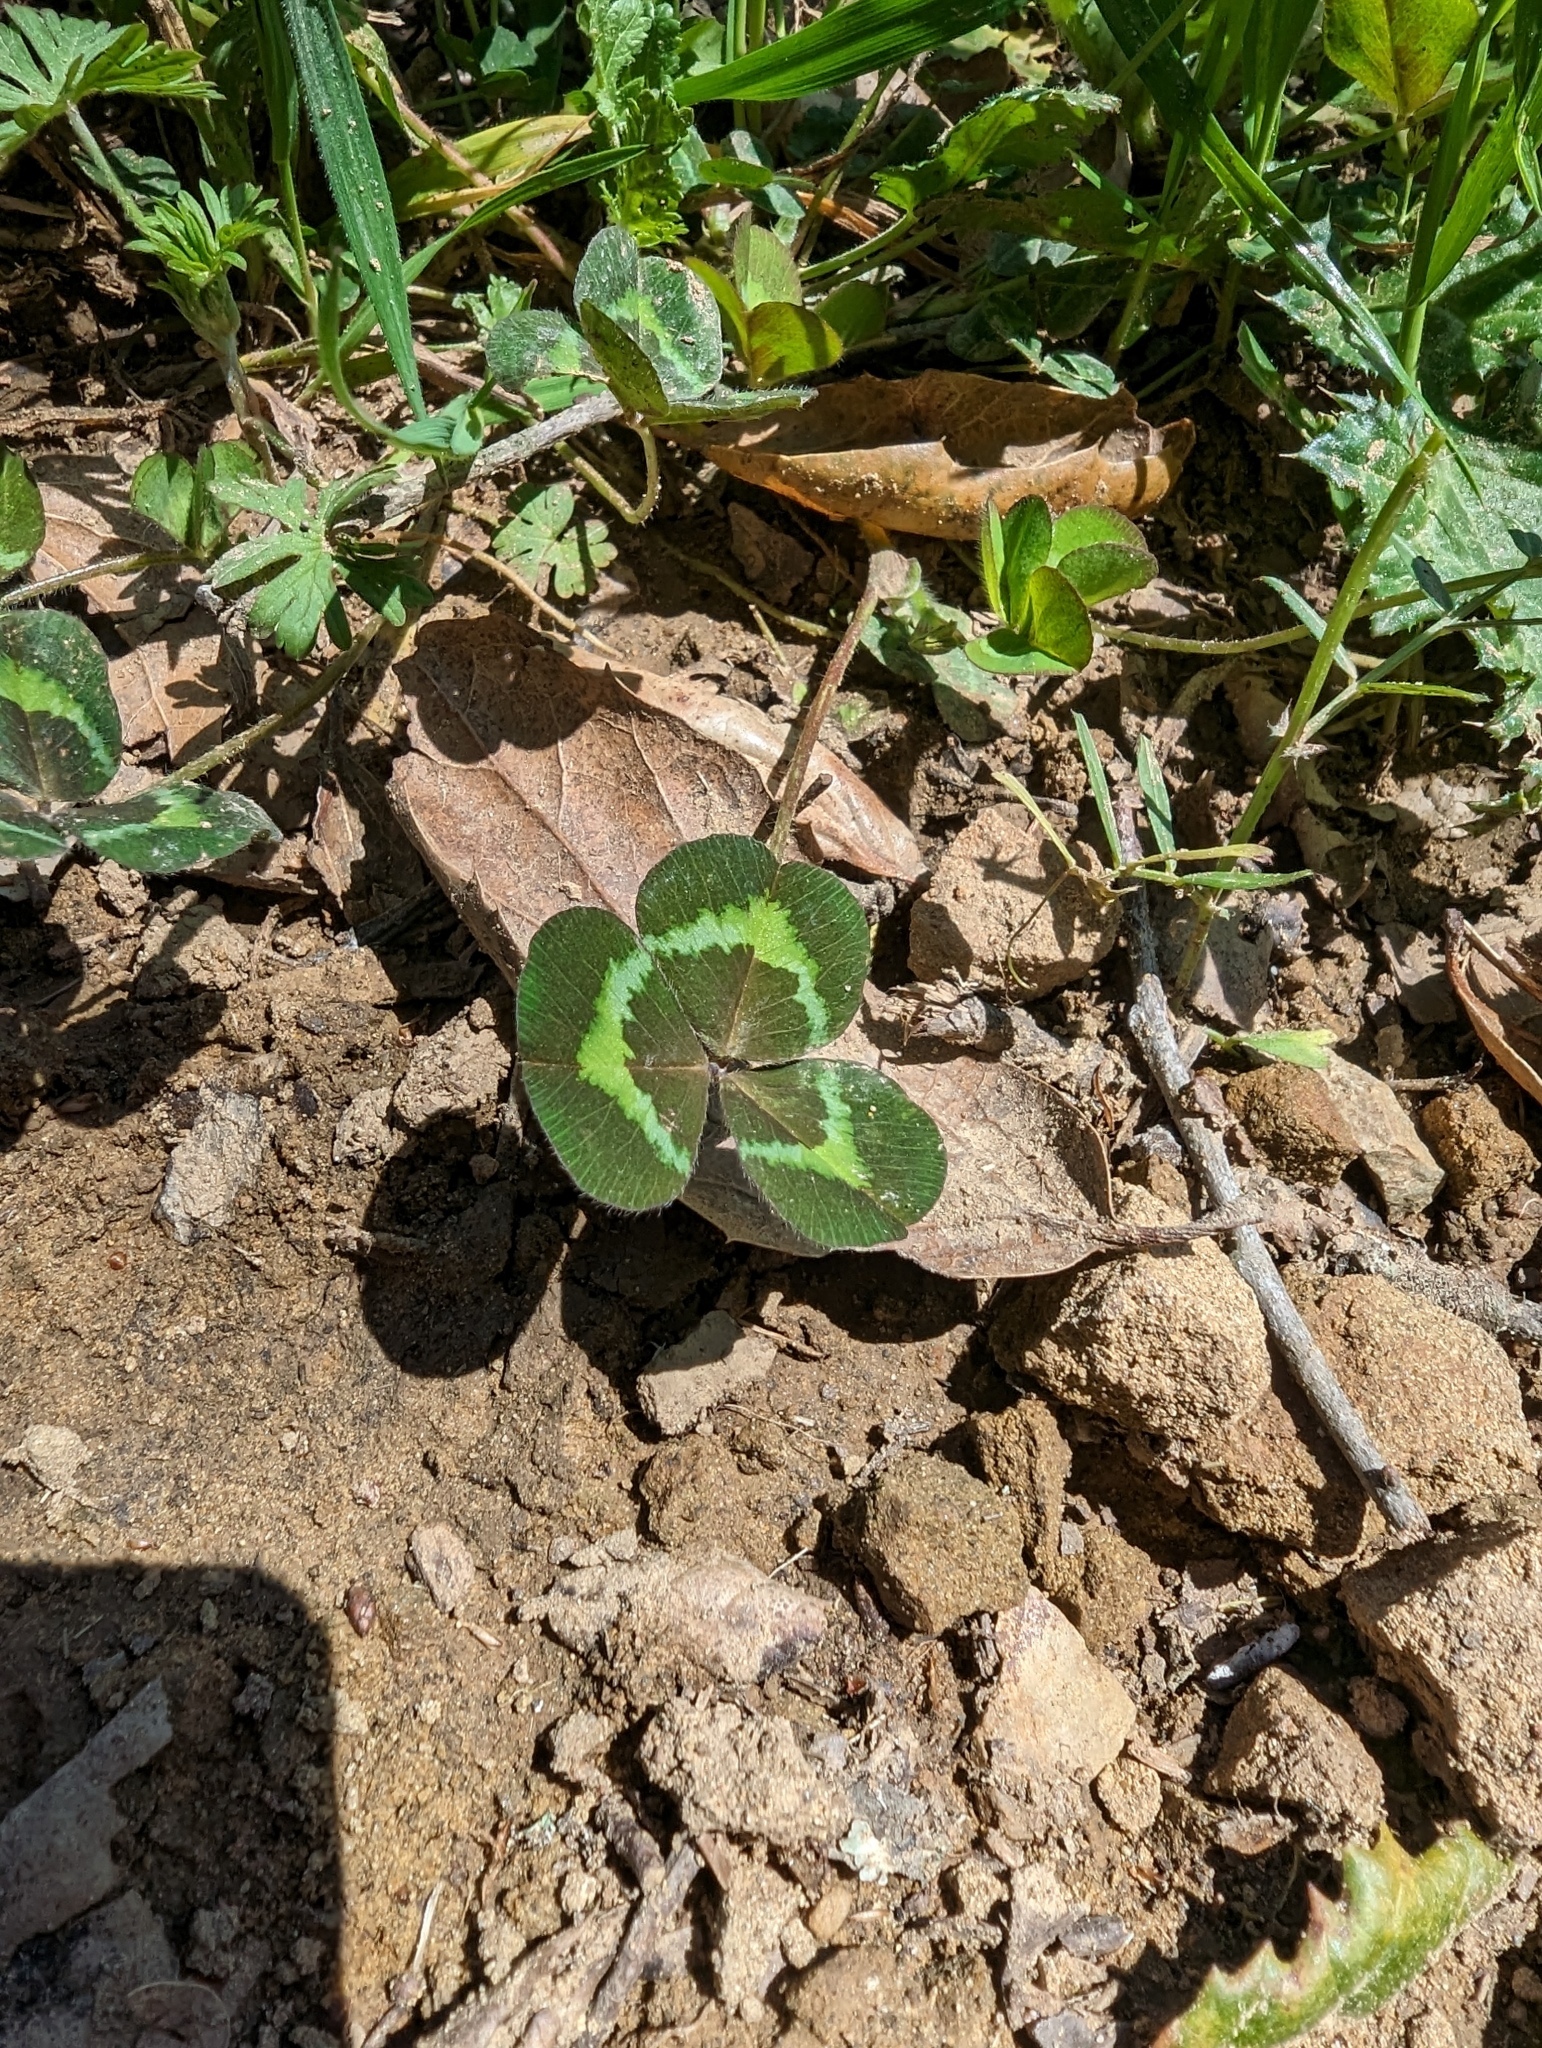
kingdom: Plantae
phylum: Tracheophyta
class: Magnoliopsida
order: Fabales
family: Fabaceae
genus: Trifolium
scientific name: Trifolium subterraneum
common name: Subterranean clover
